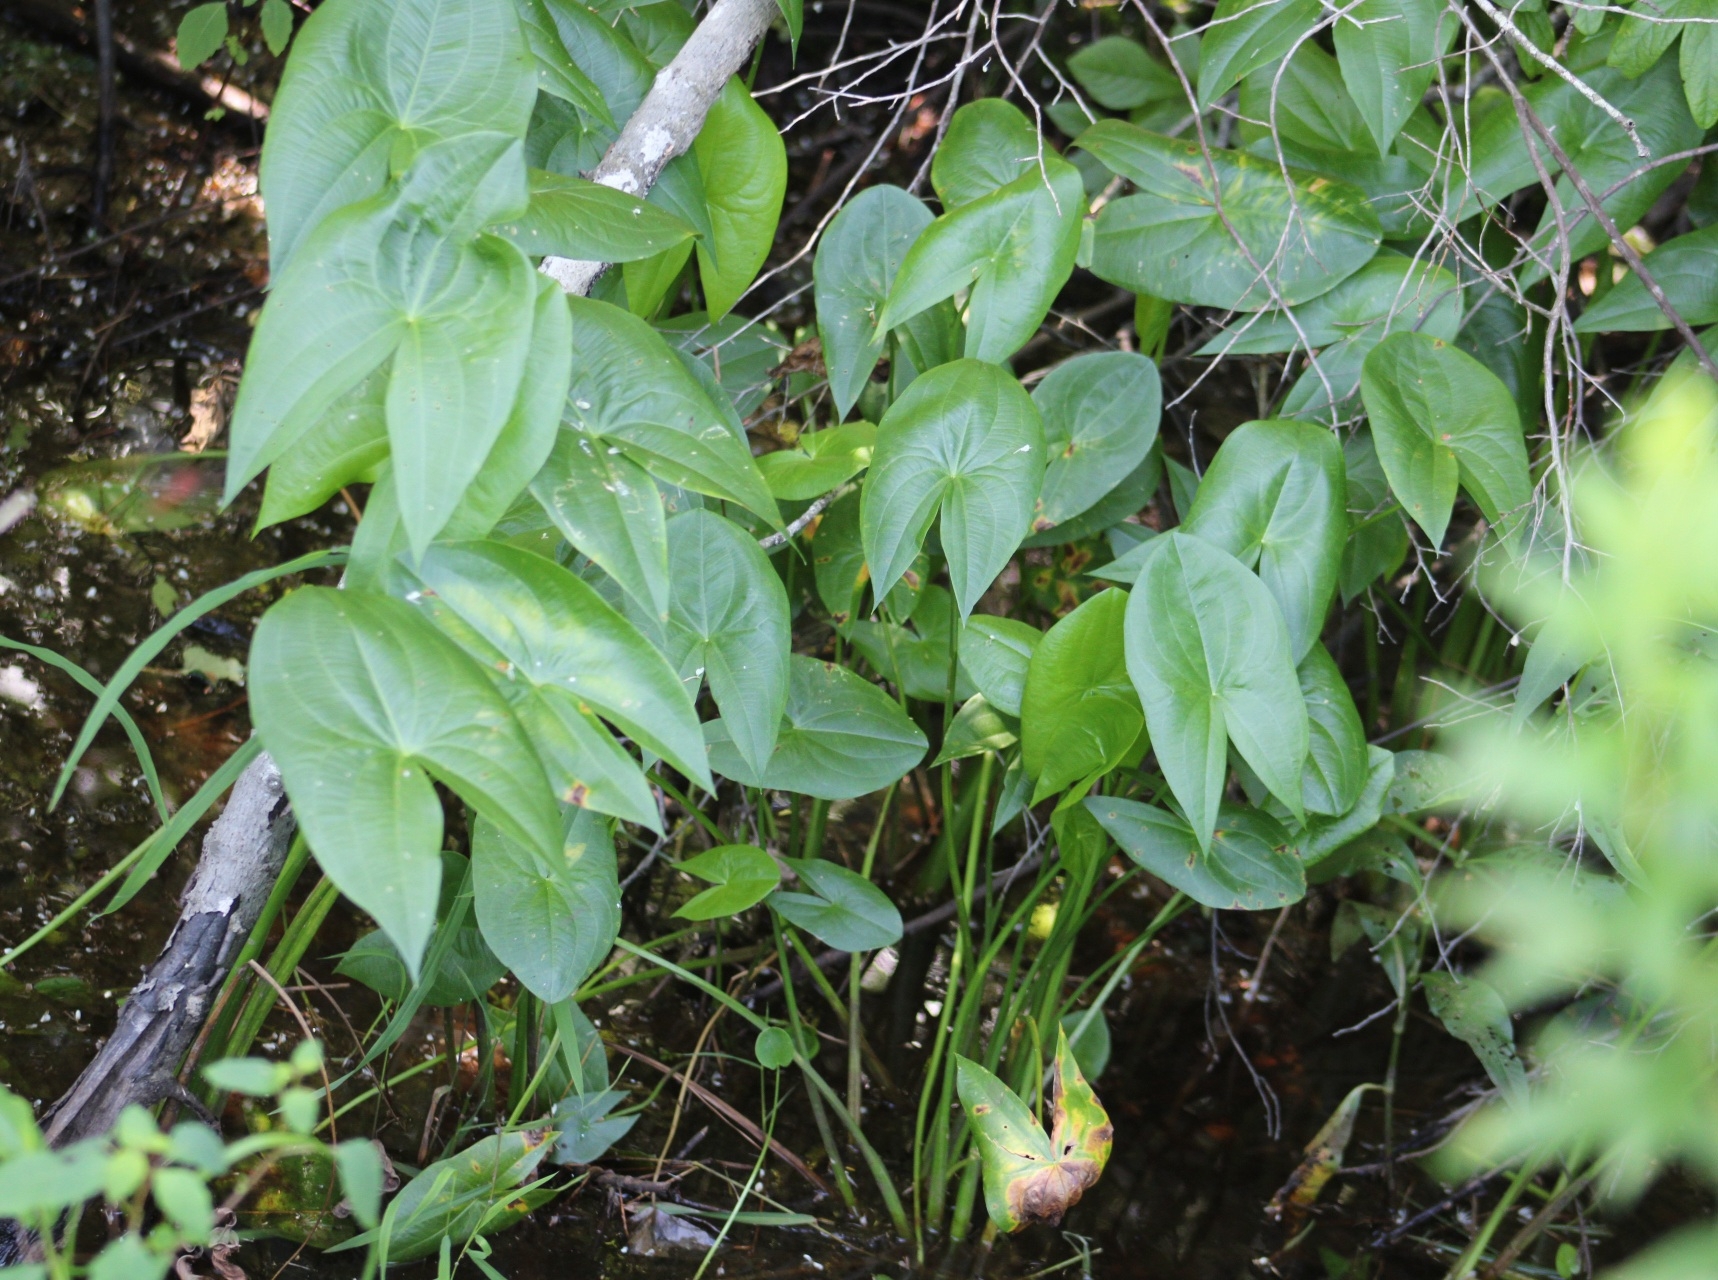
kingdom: Plantae
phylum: Tracheophyta
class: Liliopsida
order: Alismatales
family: Alismataceae
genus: Sagittaria
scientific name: Sagittaria latifolia
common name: Duck-potato
